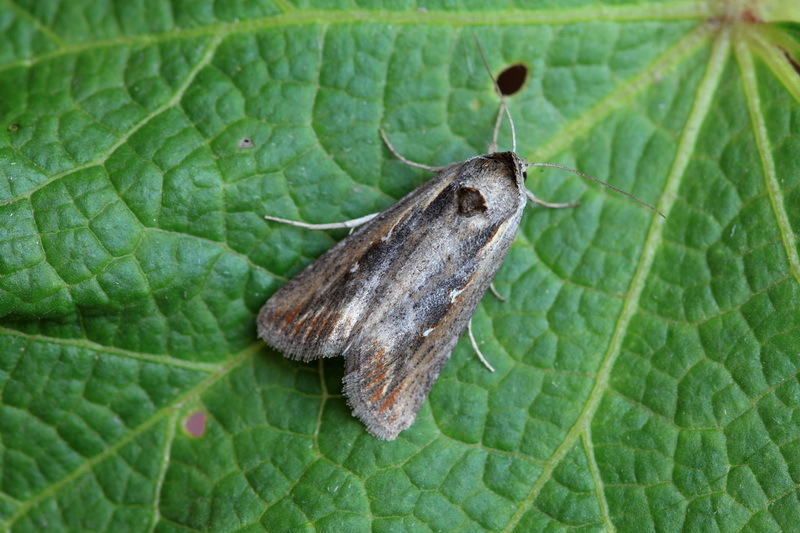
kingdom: Animalia
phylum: Arthropoda
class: Insecta
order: Lepidoptera
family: Noctuidae
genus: Epimecia
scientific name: Epimecia ustula
